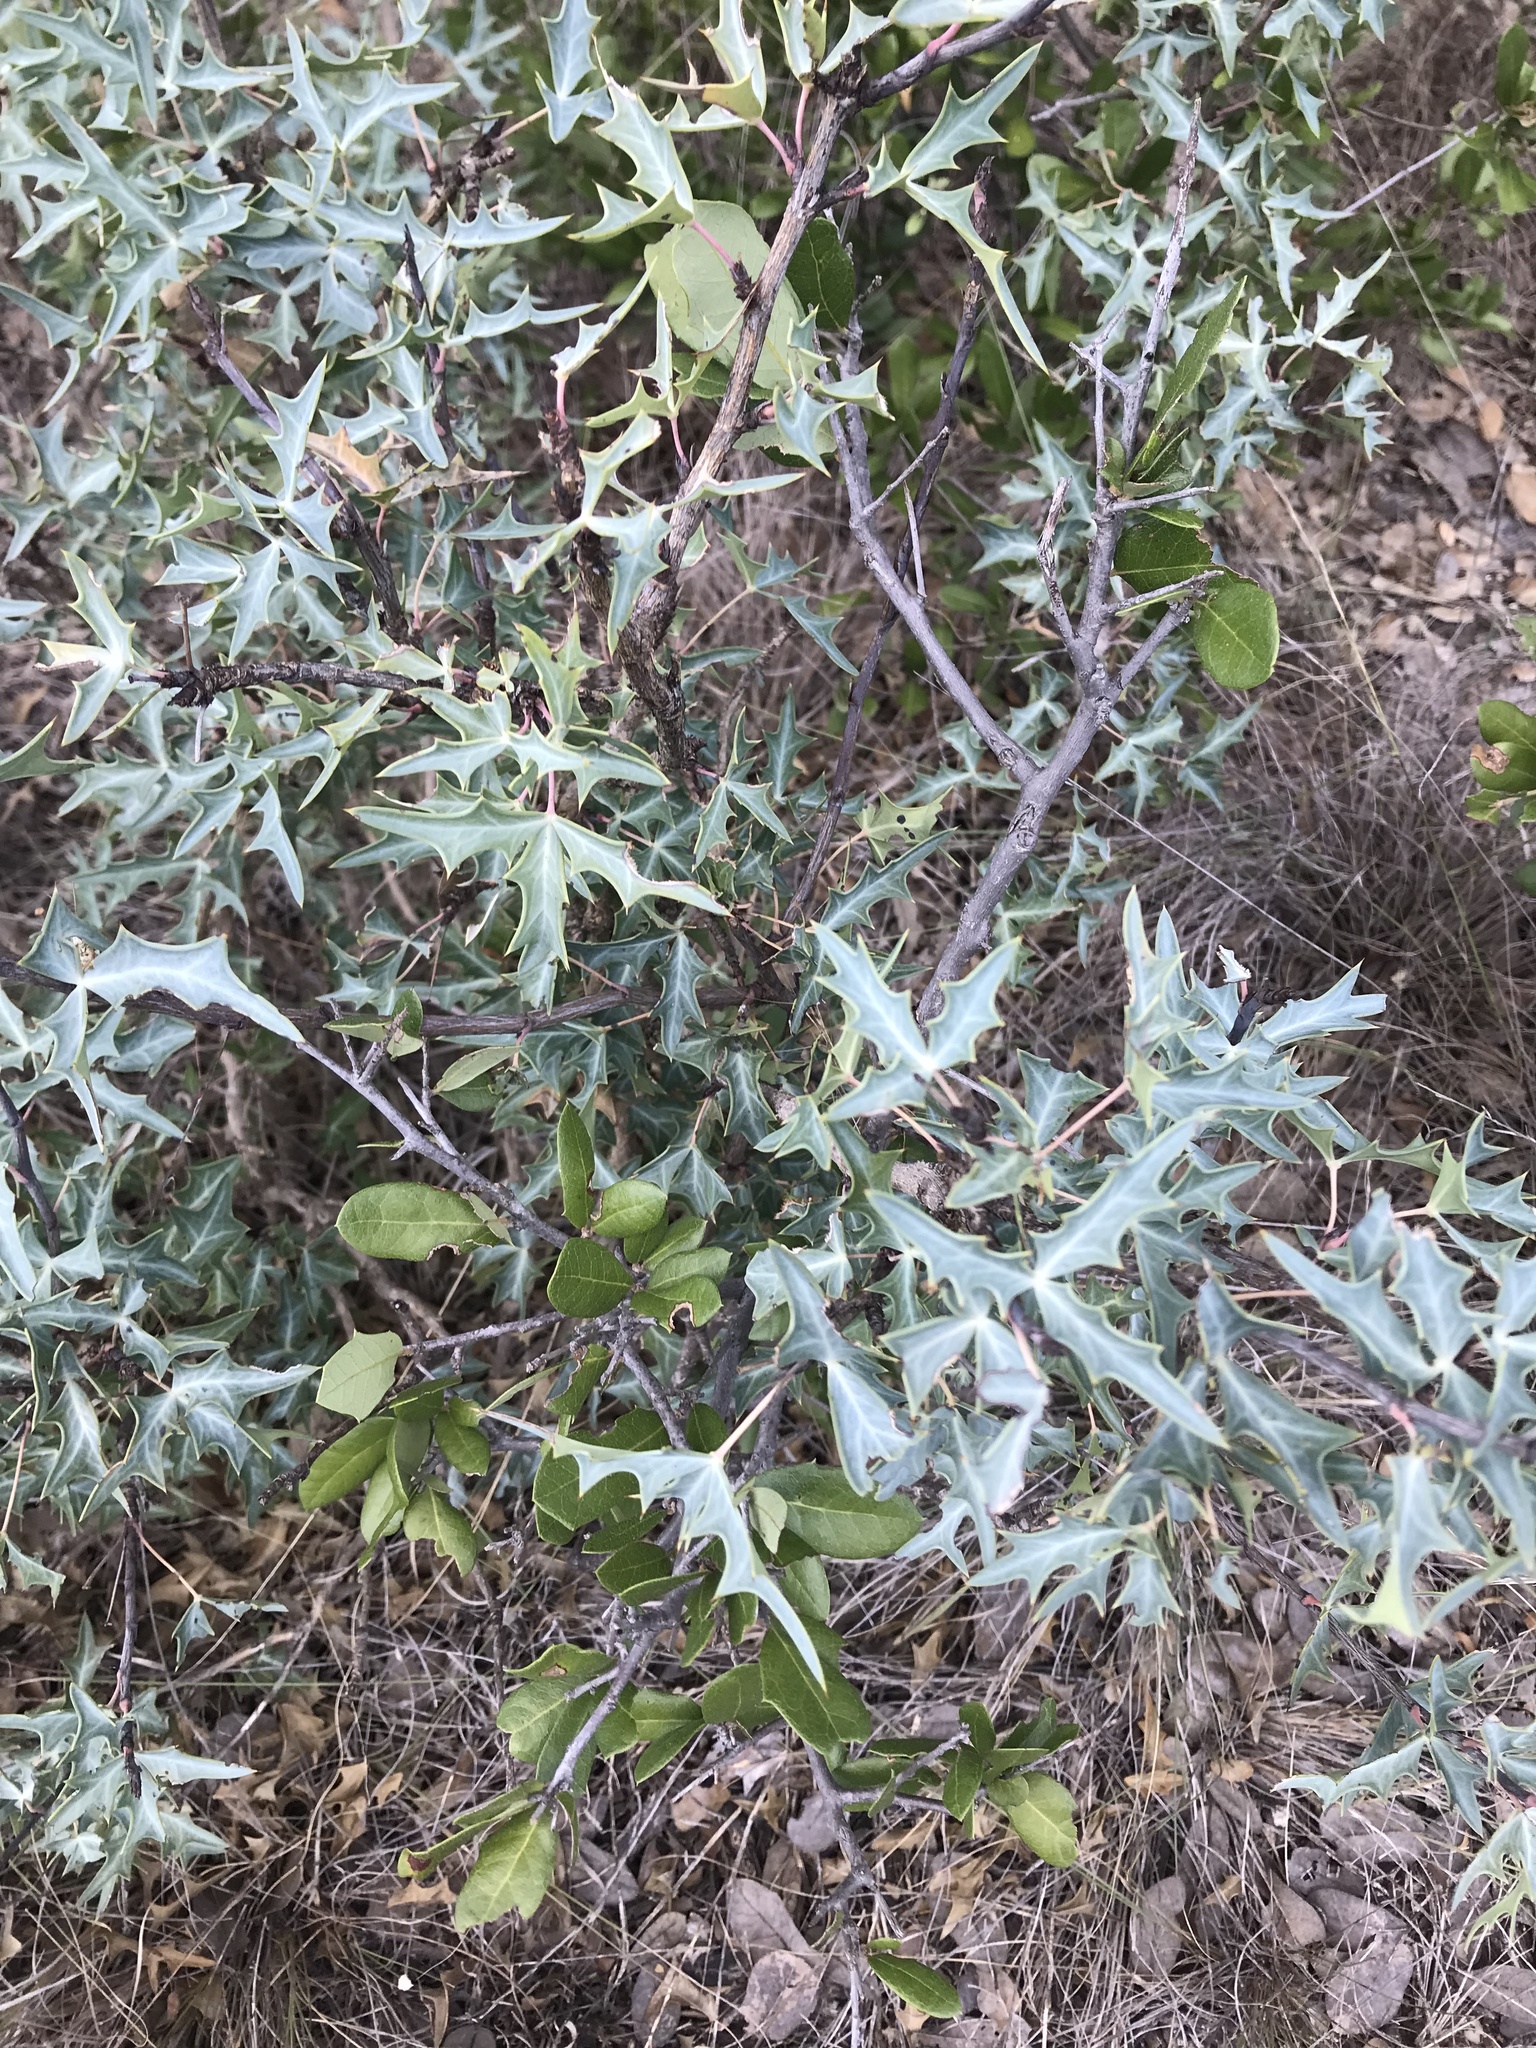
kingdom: Plantae
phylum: Tracheophyta
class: Magnoliopsida
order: Ranunculales
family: Berberidaceae
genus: Alloberberis
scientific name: Alloberberis trifoliolata
